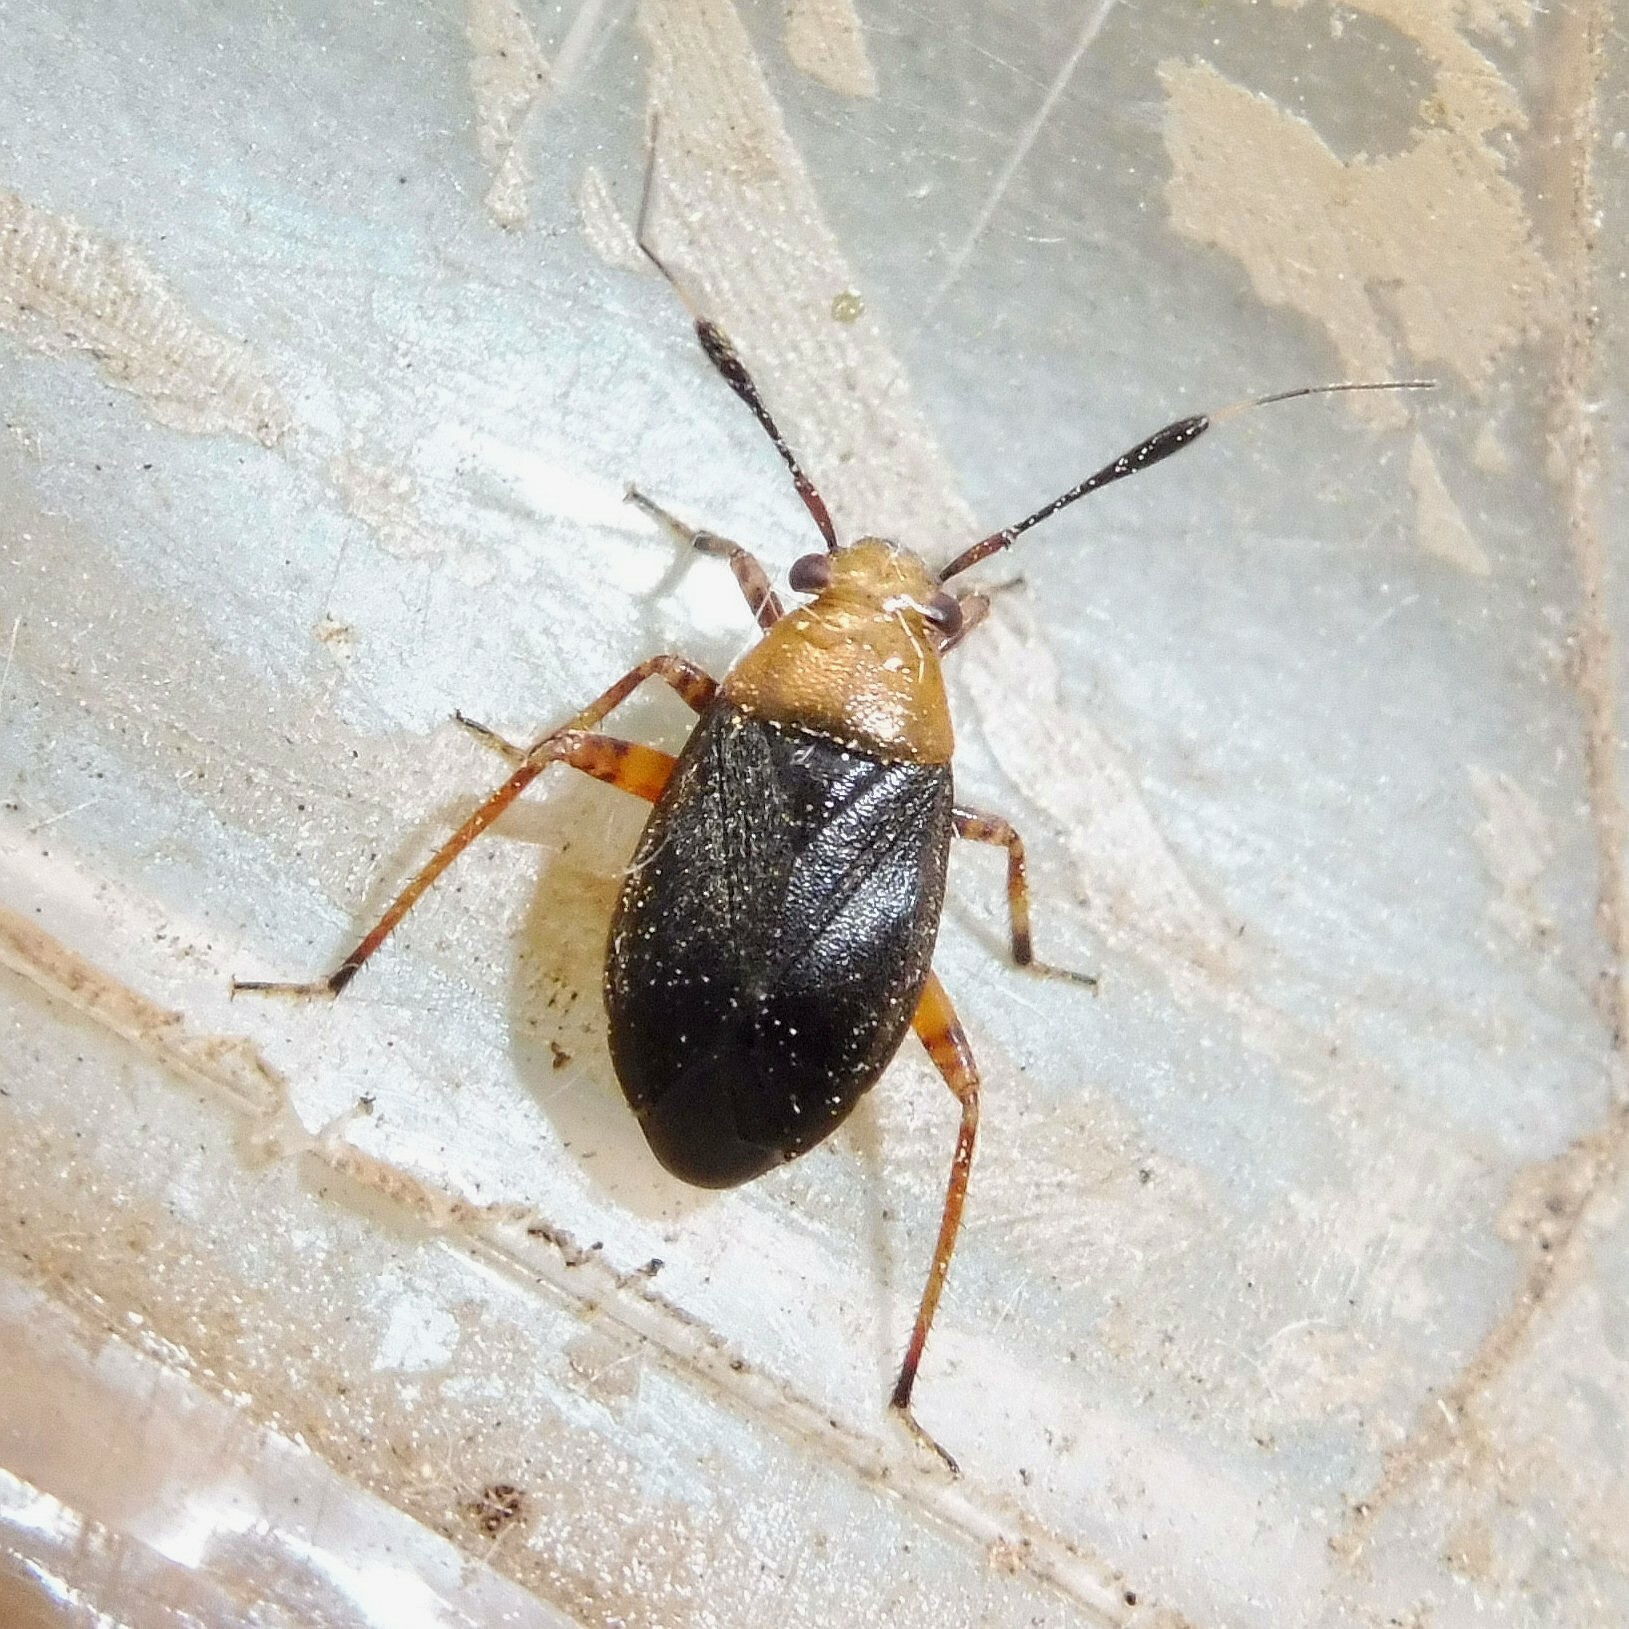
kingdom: Animalia
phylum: Arthropoda
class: Insecta
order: Hemiptera
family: Miridae
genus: Capsus
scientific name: Capsus ater
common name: Black plant bug
